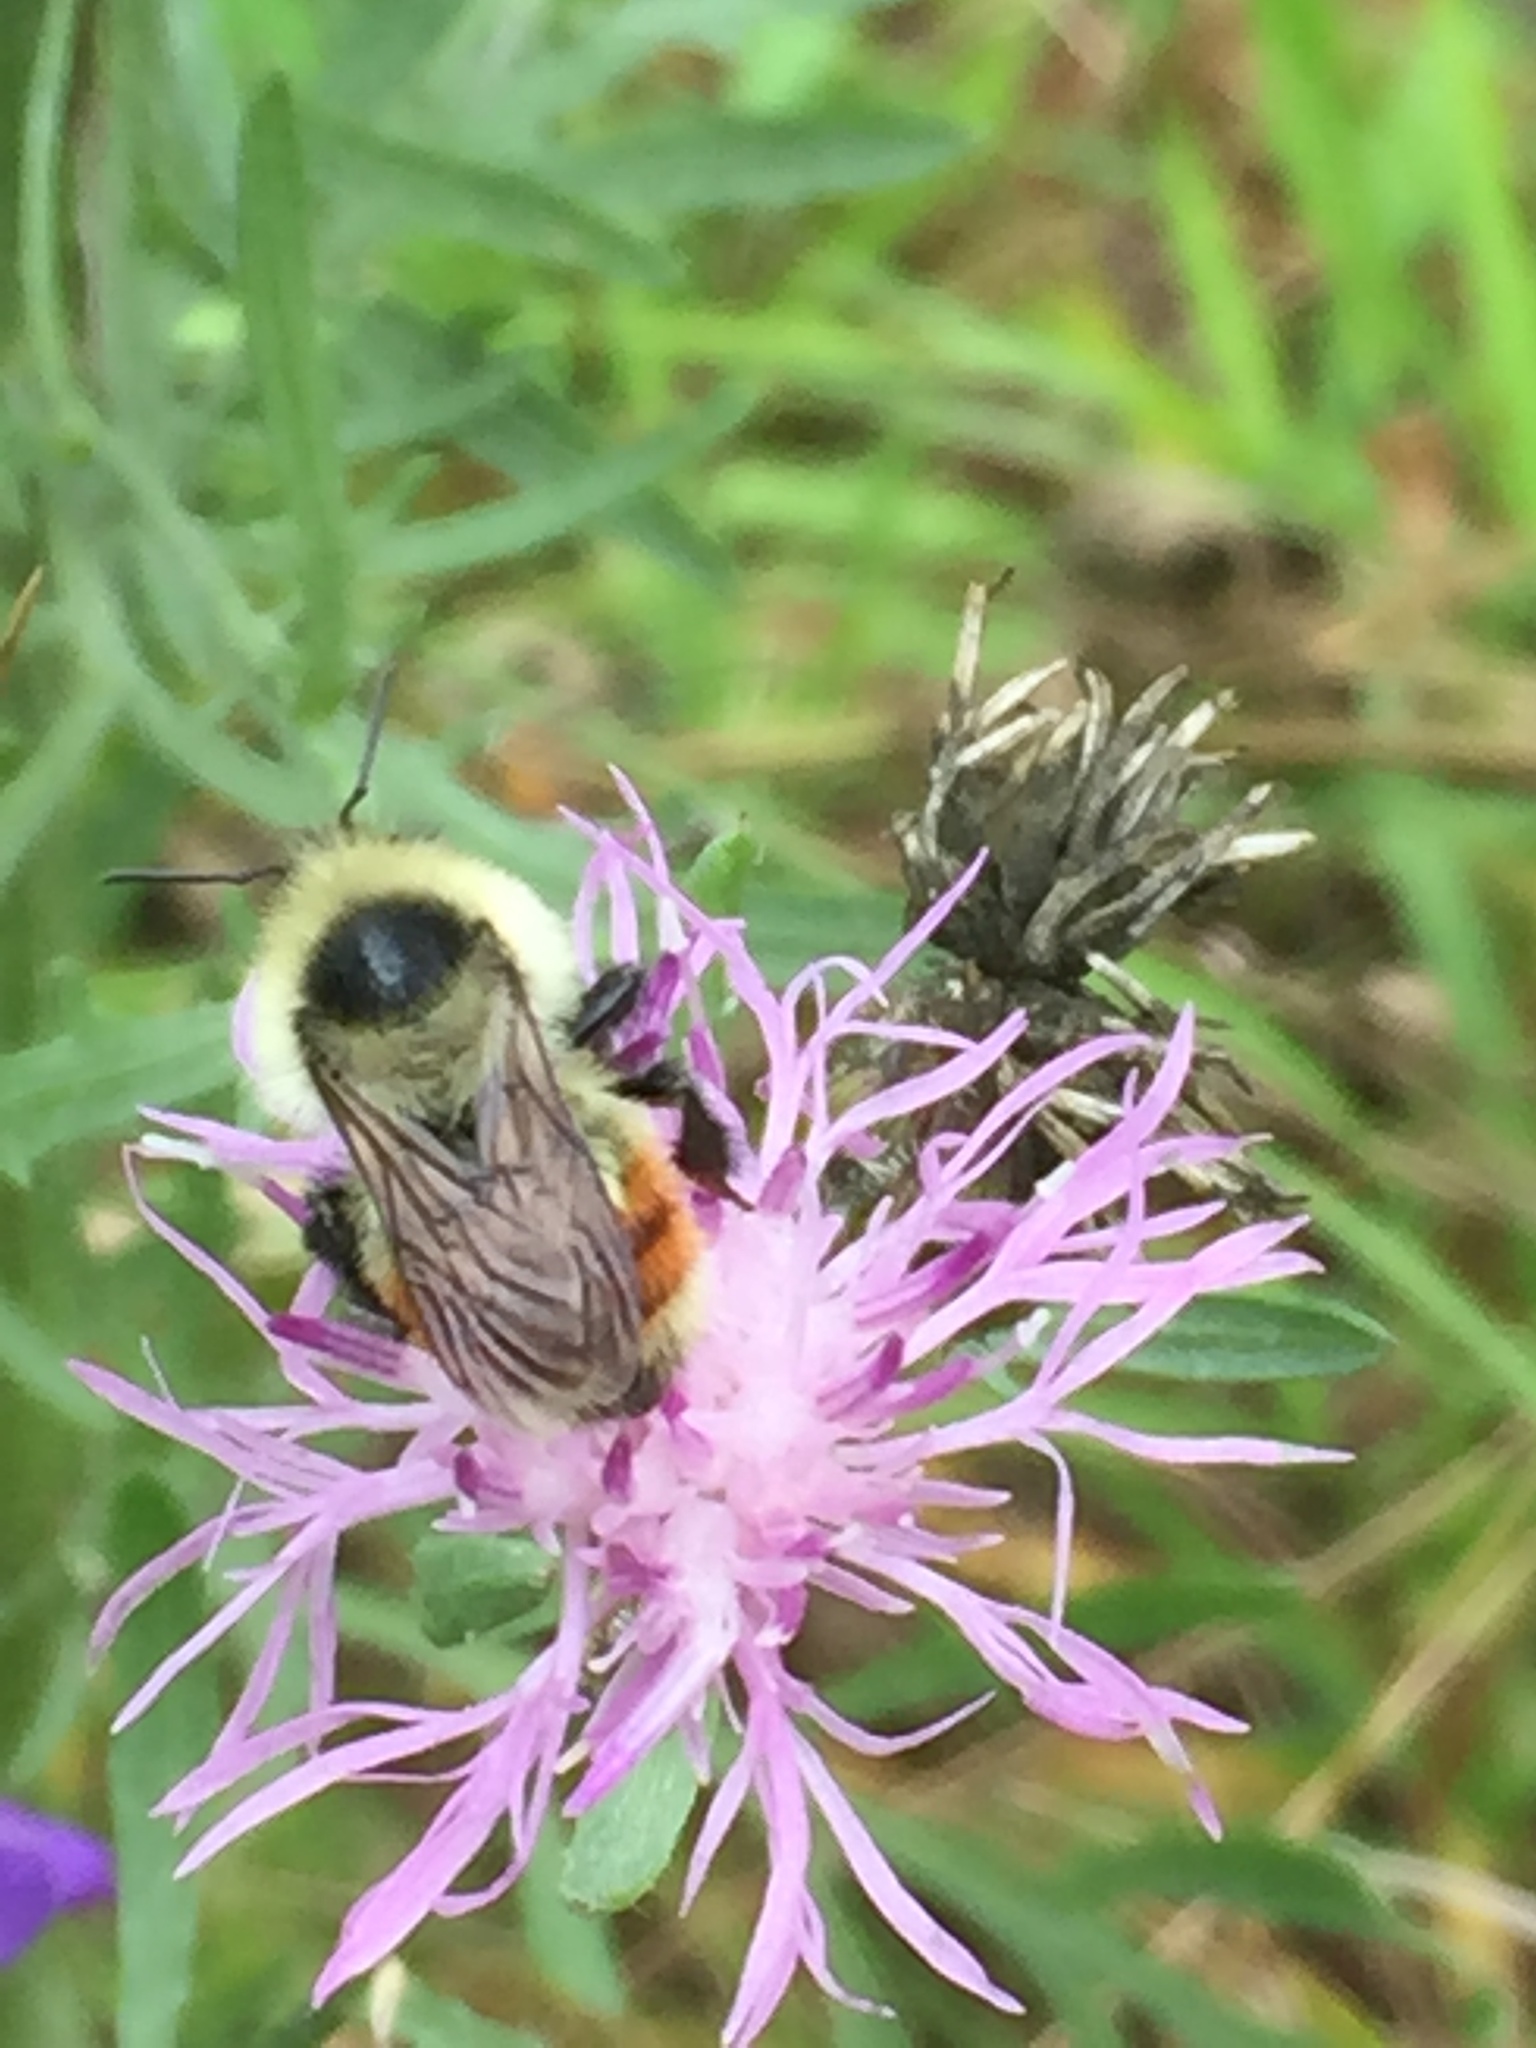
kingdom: Animalia
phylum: Arthropoda
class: Insecta
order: Hymenoptera
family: Apidae
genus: Bombus
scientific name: Bombus rufocinctus
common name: Red-belted bumble bee
